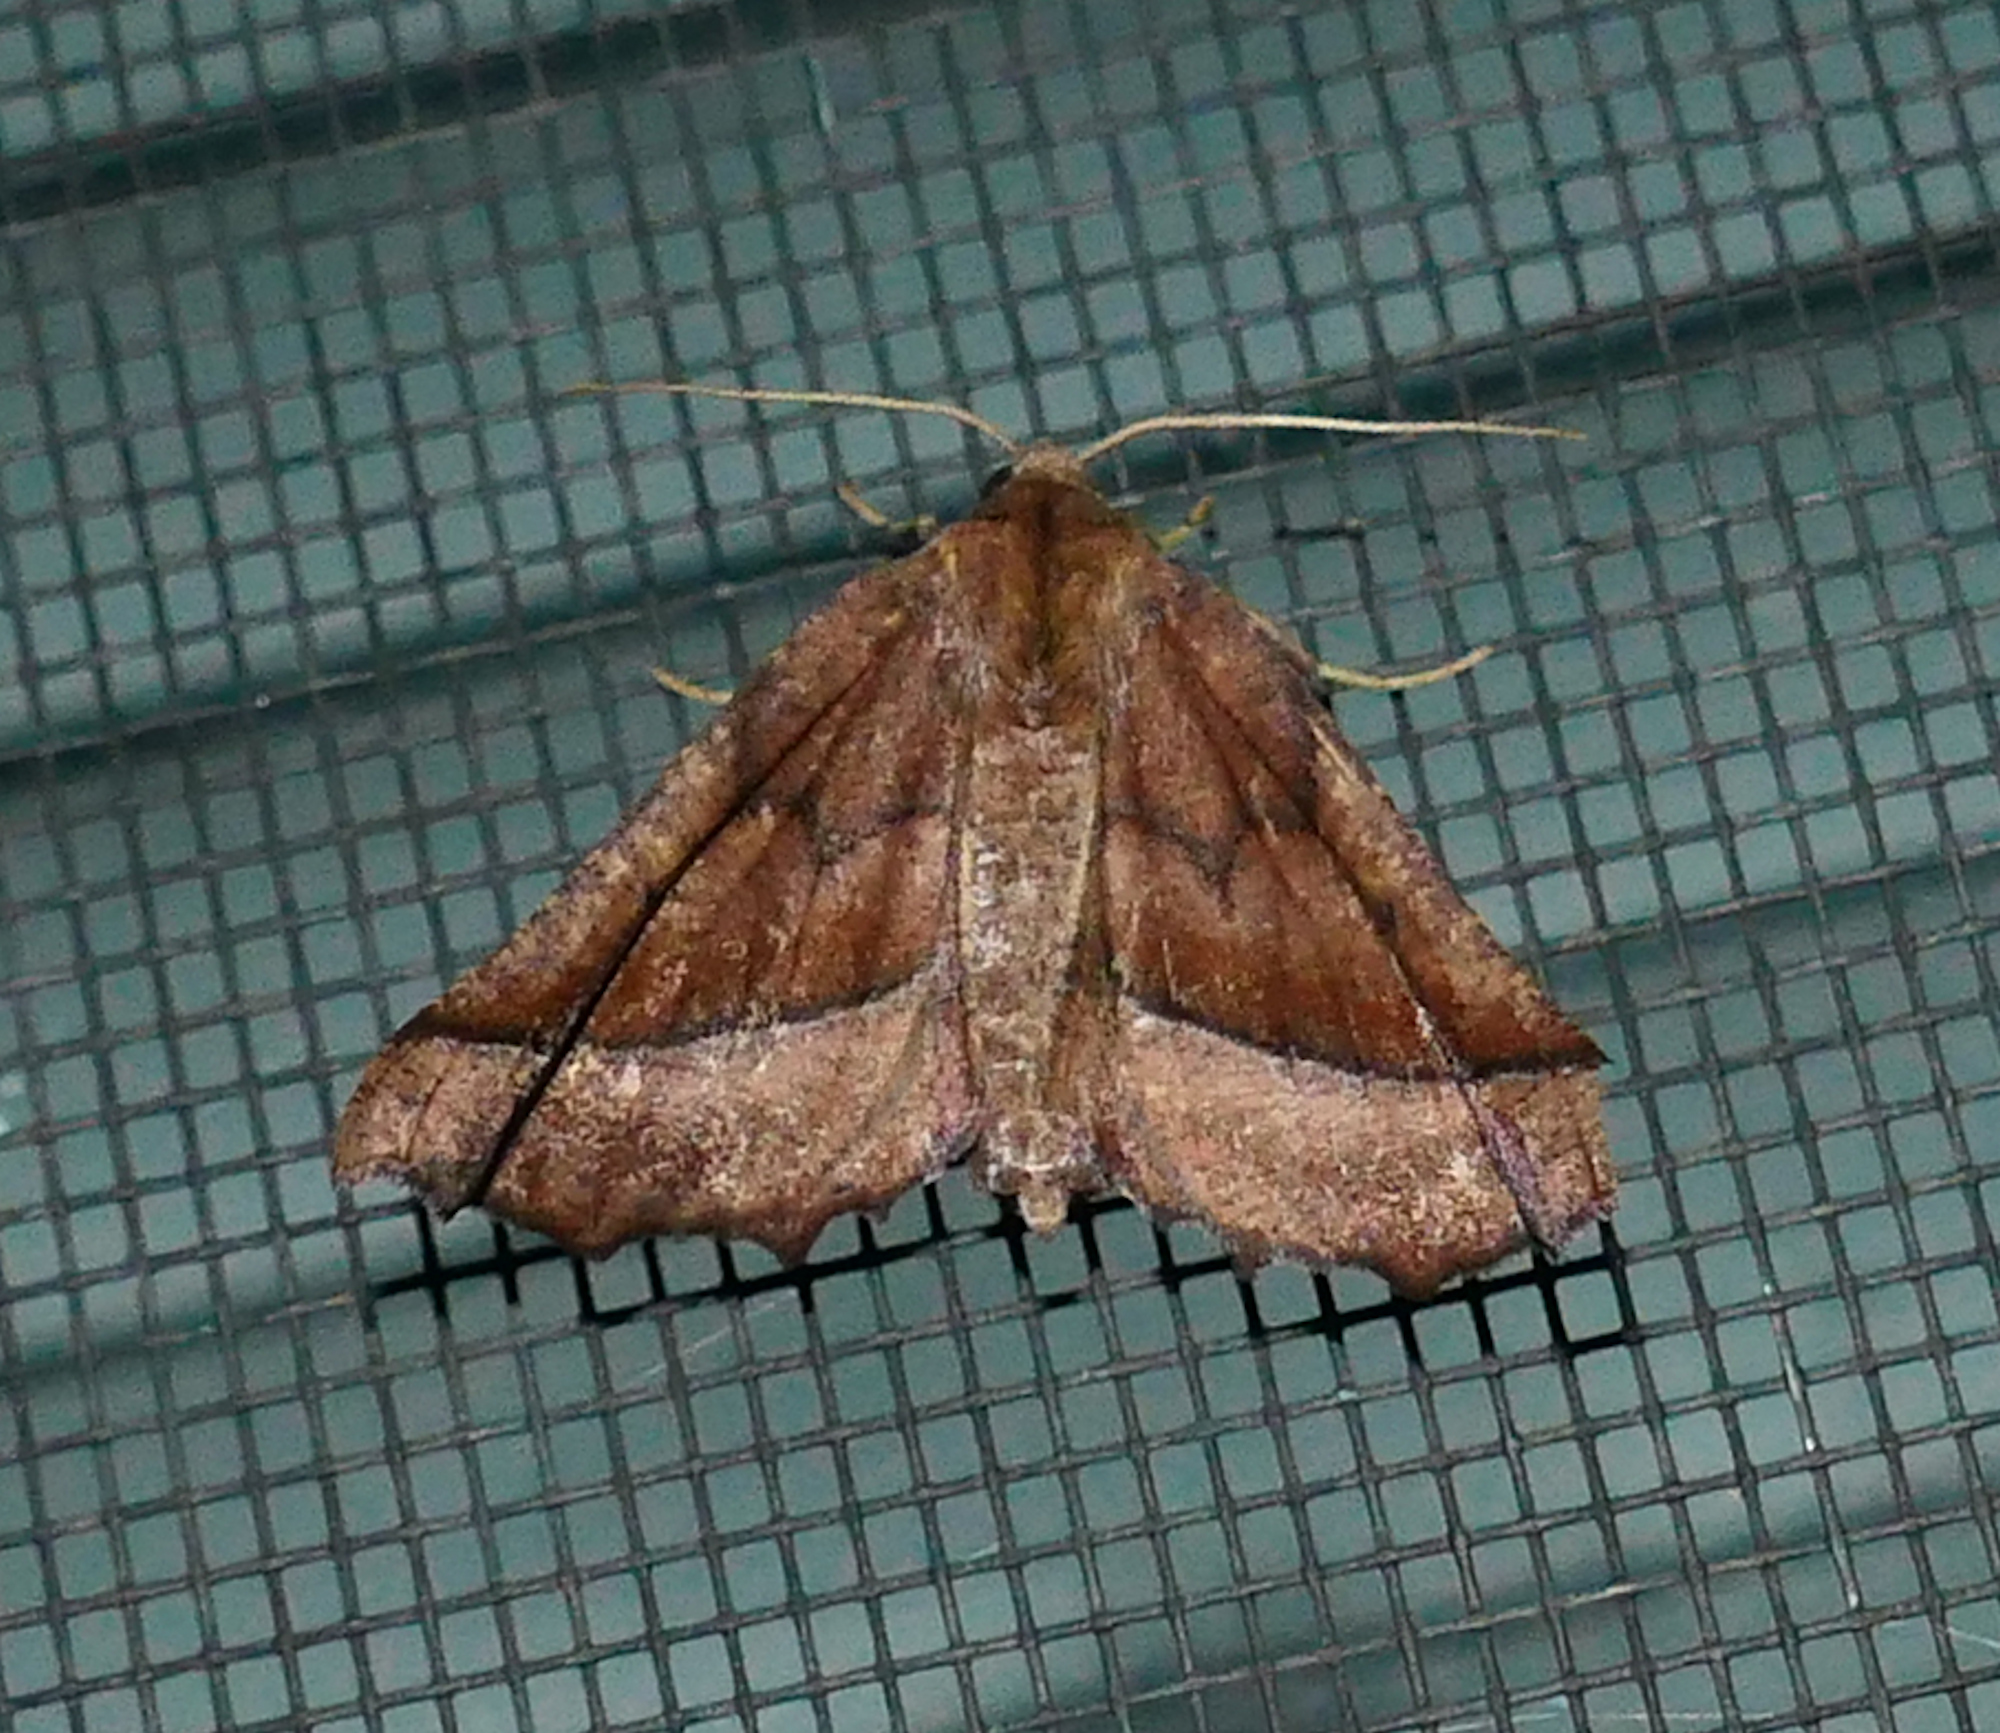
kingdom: Animalia
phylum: Arthropoda
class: Insecta
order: Lepidoptera
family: Geometridae
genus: Pero
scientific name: Pero zalissaria
